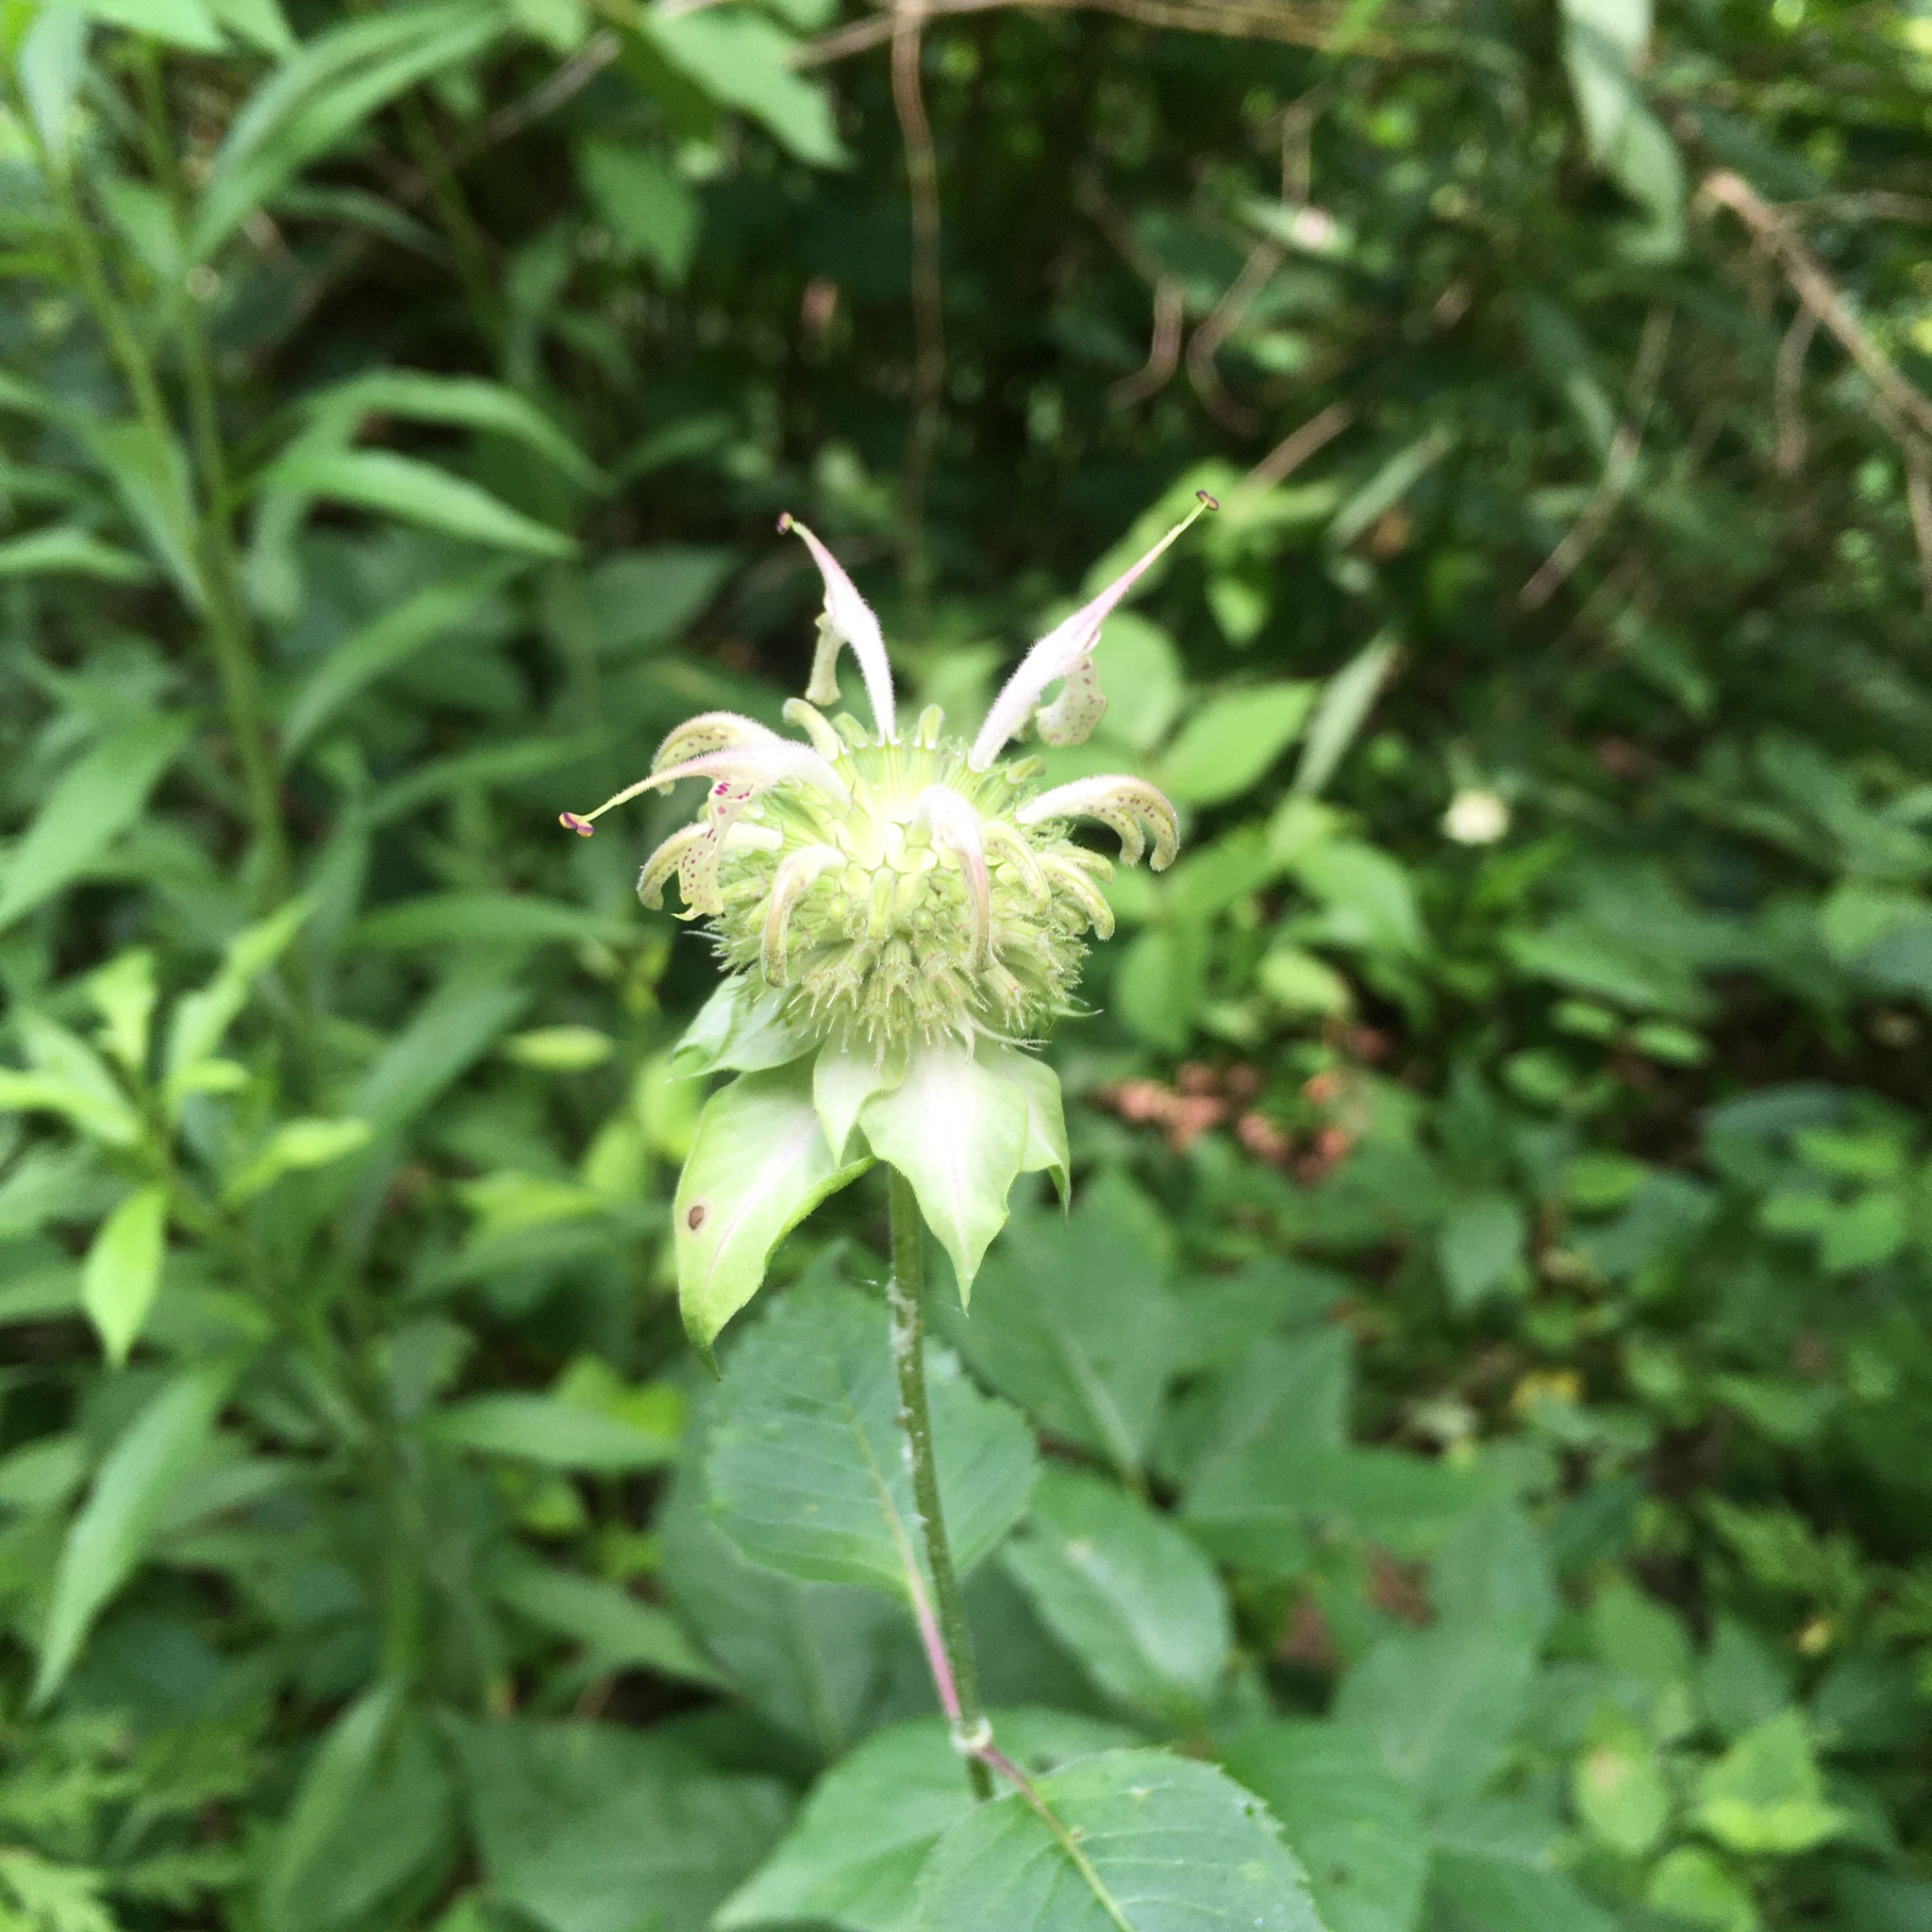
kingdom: Plantae
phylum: Tracheophyta
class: Magnoliopsida
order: Lamiales
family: Lamiaceae
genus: Monarda
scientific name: Monarda clinopodia
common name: Basil beebalm
